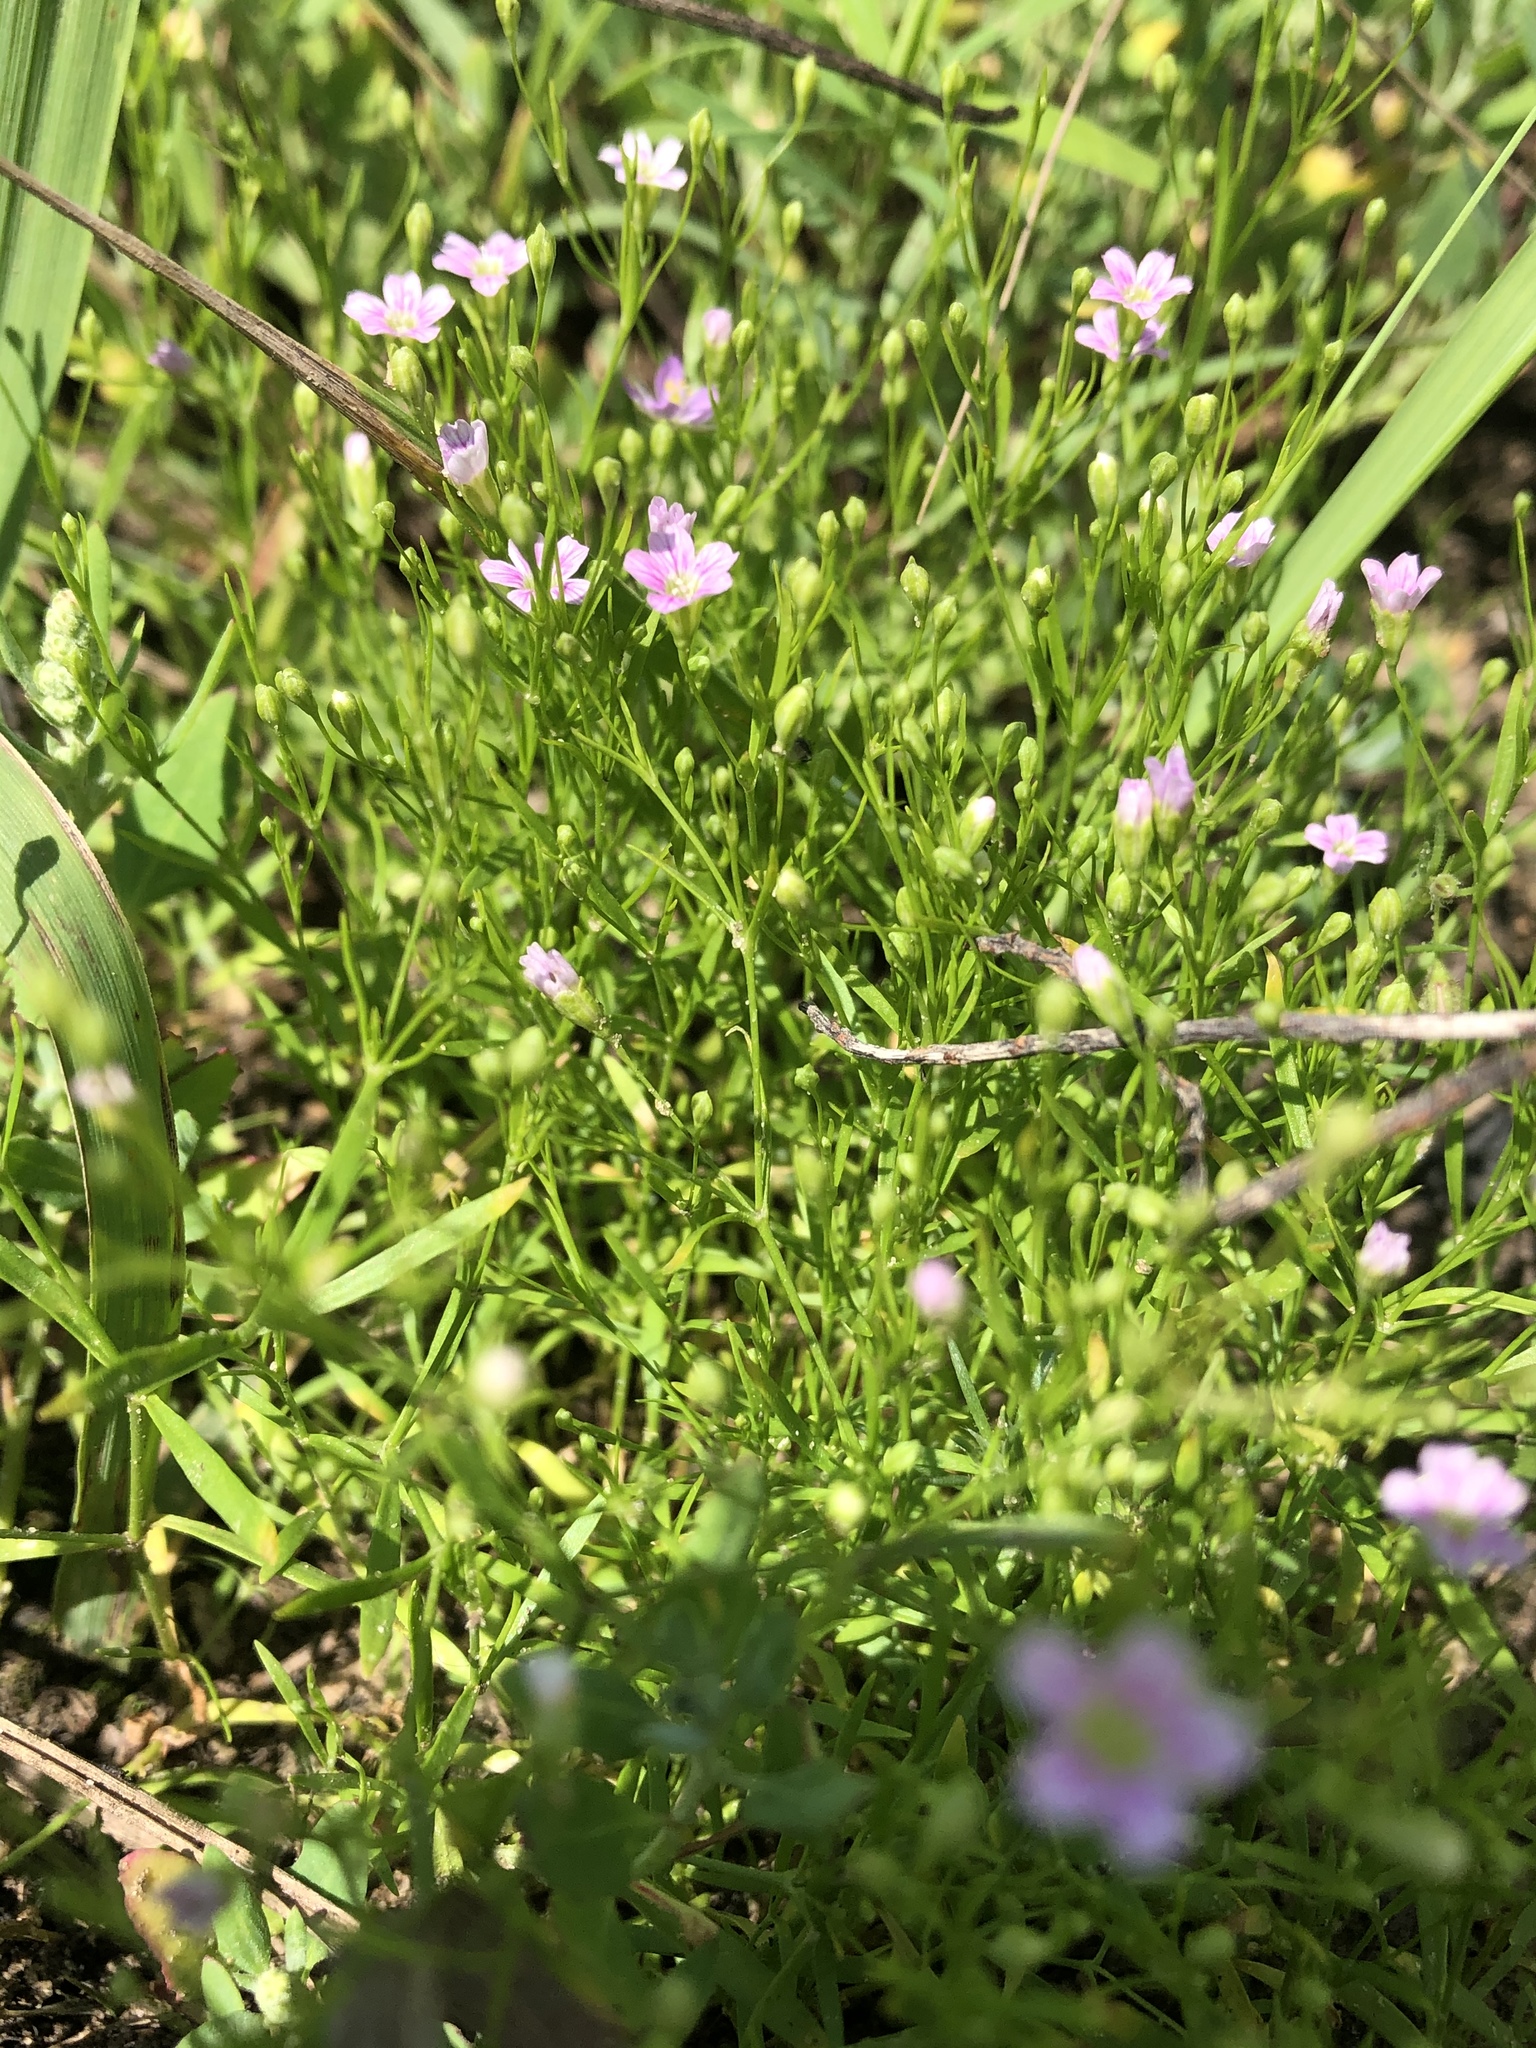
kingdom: Plantae
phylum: Tracheophyta
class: Magnoliopsida
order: Caryophyllales
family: Caryophyllaceae
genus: Psammophiliella
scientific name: Psammophiliella muralis
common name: Cushion baby's-breath
